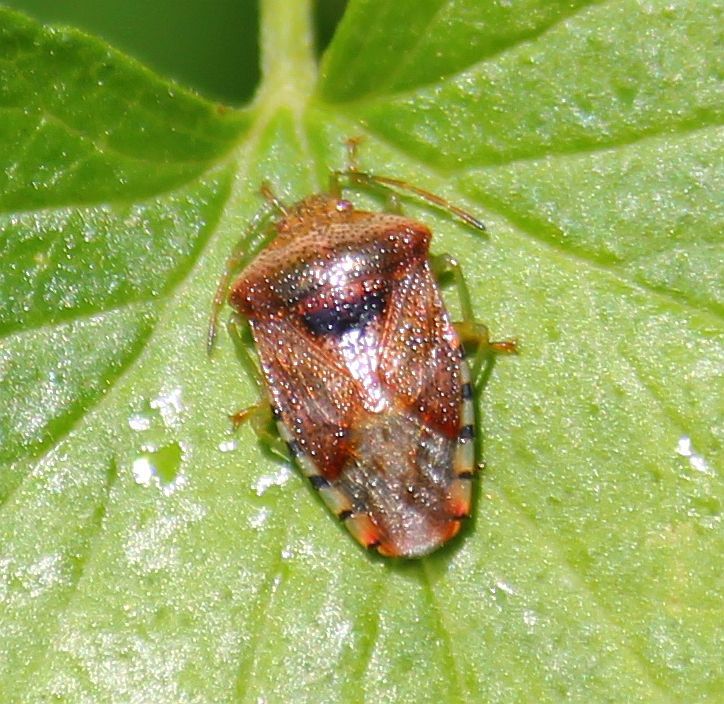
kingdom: Animalia
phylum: Arthropoda
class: Insecta
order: Hemiptera
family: Acanthosomatidae
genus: Elasmucha
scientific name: Elasmucha grisea
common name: Parent bug
